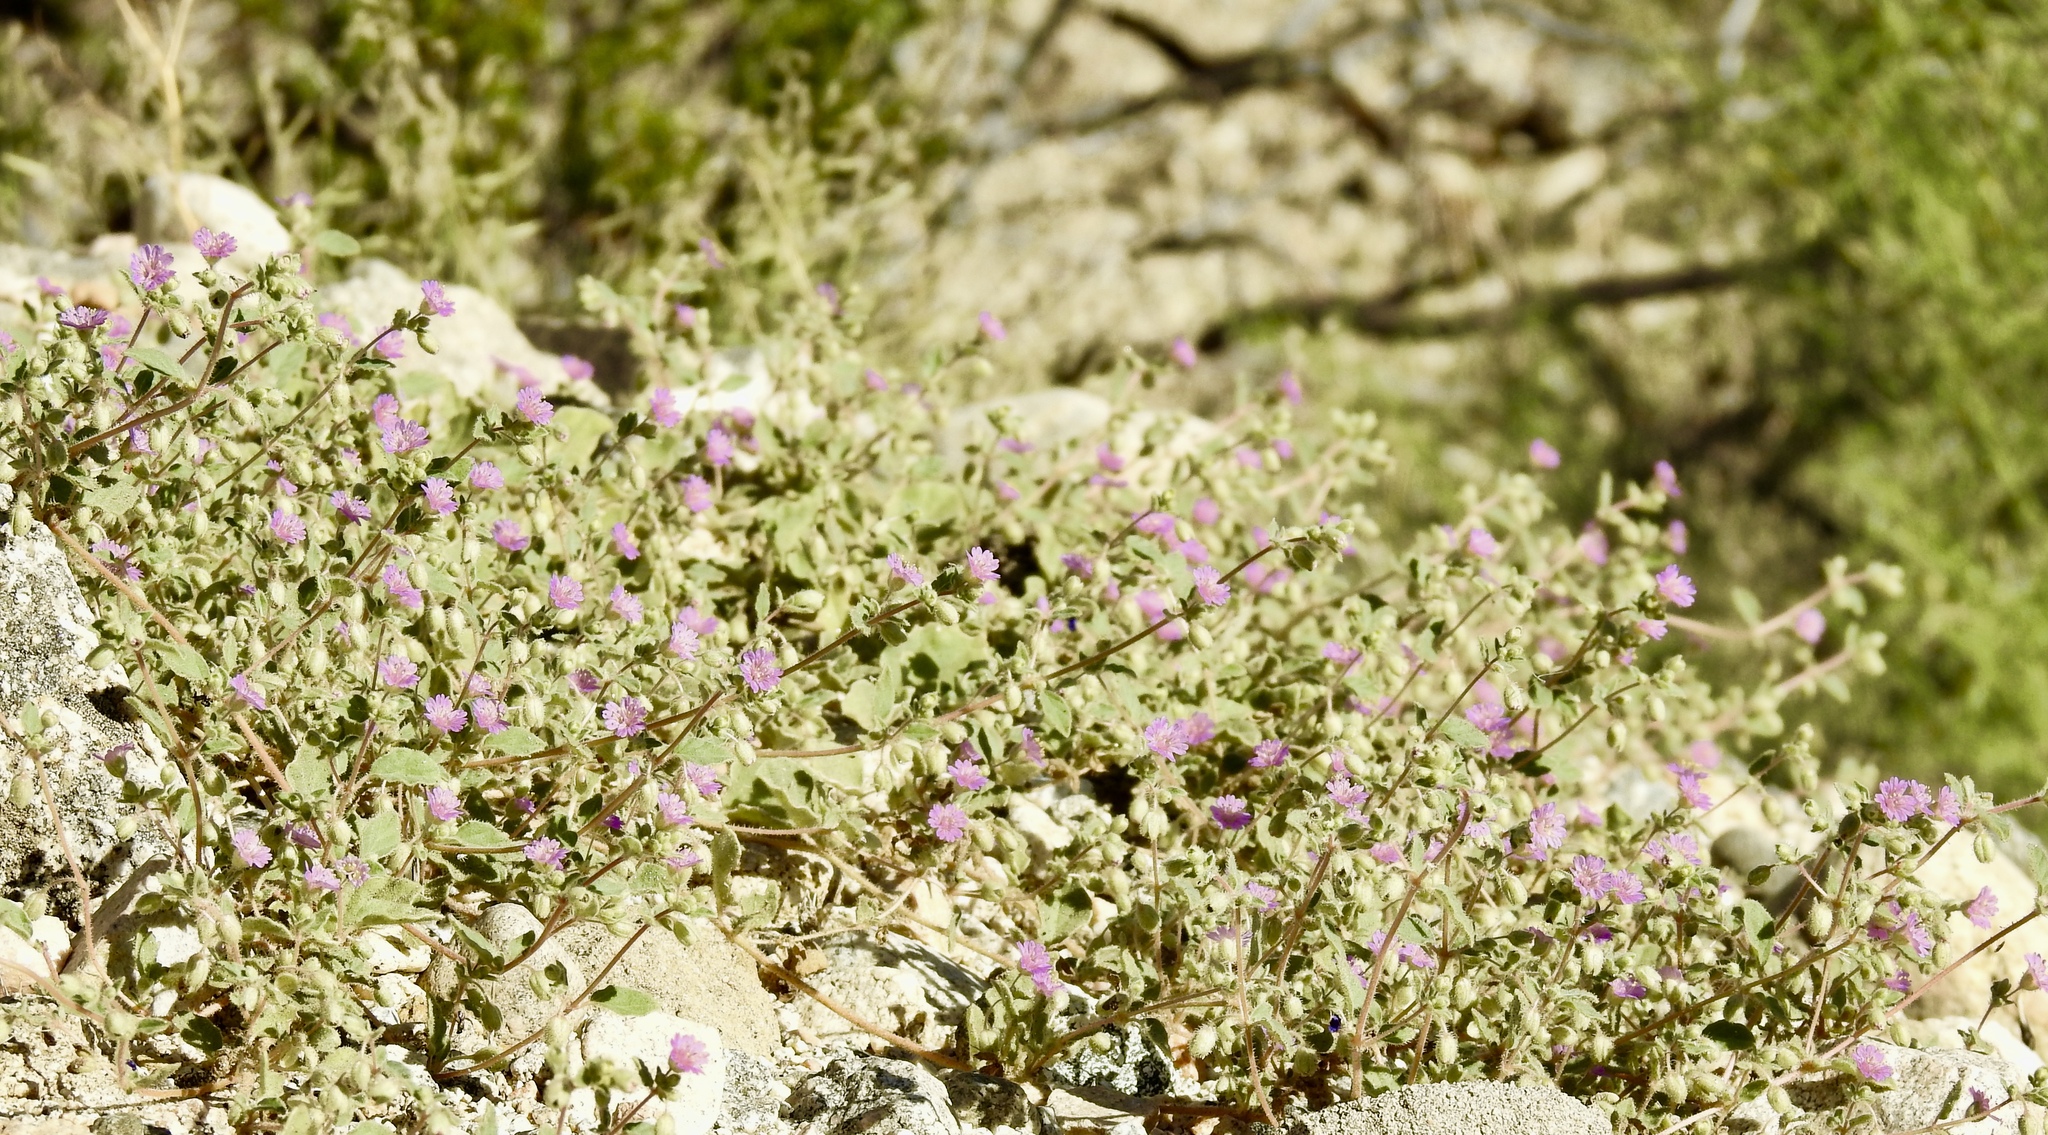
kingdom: Plantae
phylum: Tracheophyta
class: Magnoliopsida
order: Caryophyllales
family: Nyctaginaceae
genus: Allionia
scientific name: Allionia incarnata
